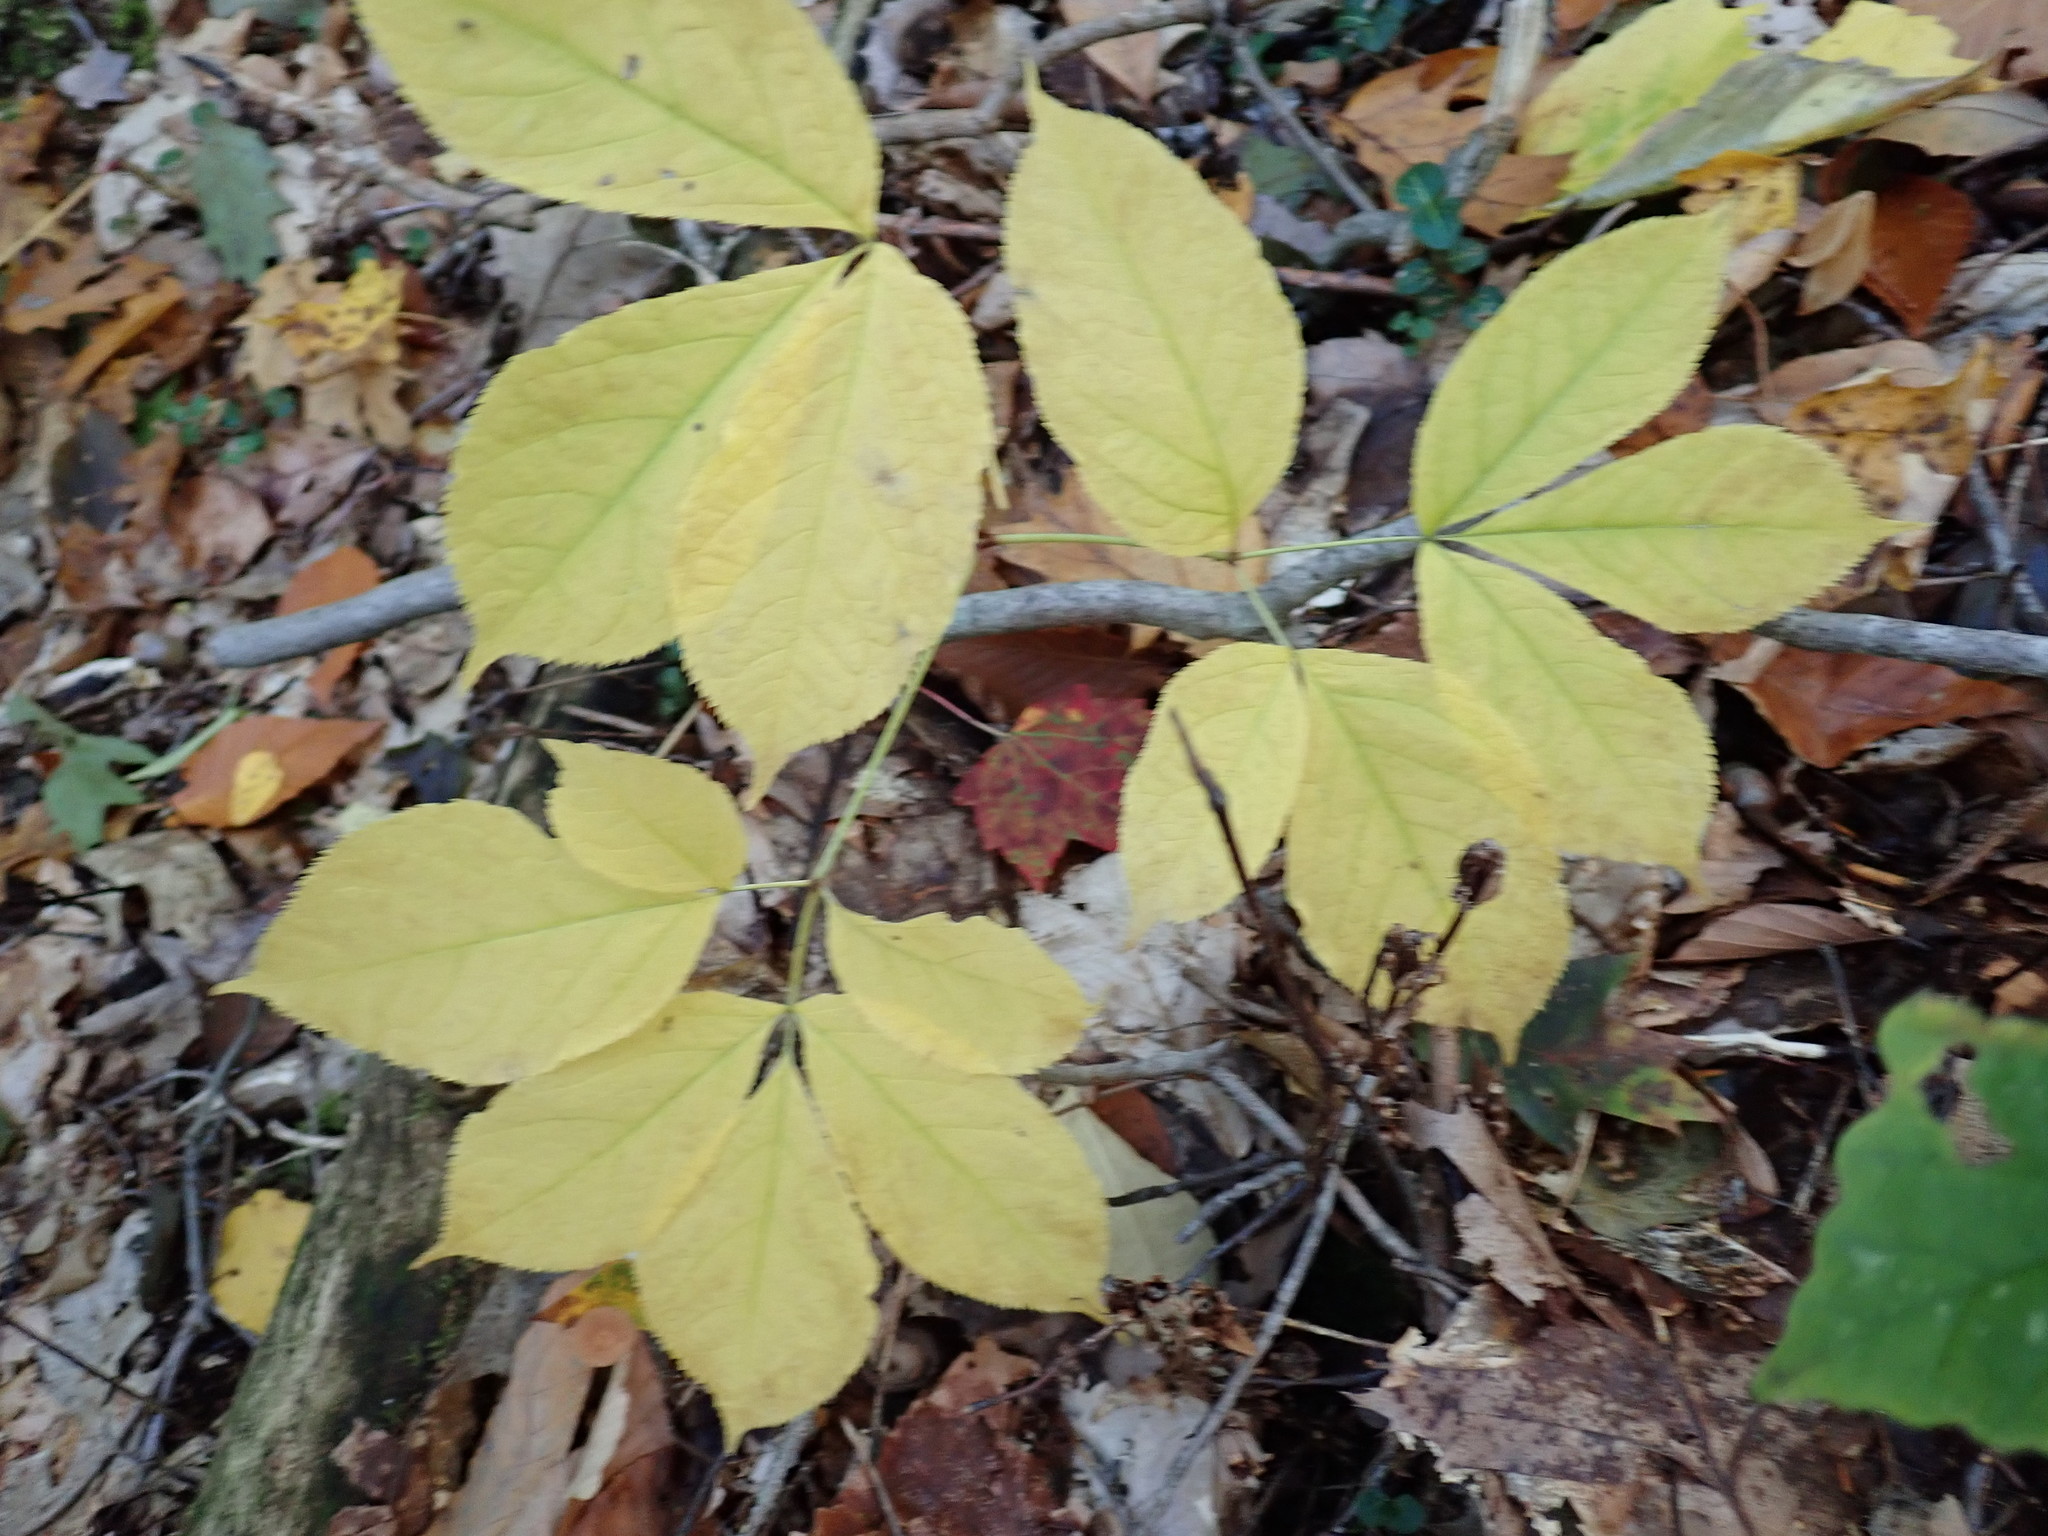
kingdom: Plantae
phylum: Tracheophyta
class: Magnoliopsida
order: Apiales
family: Araliaceae
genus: Aralia
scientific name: Aralia nudicaulis
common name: Wild sarsaparilla
